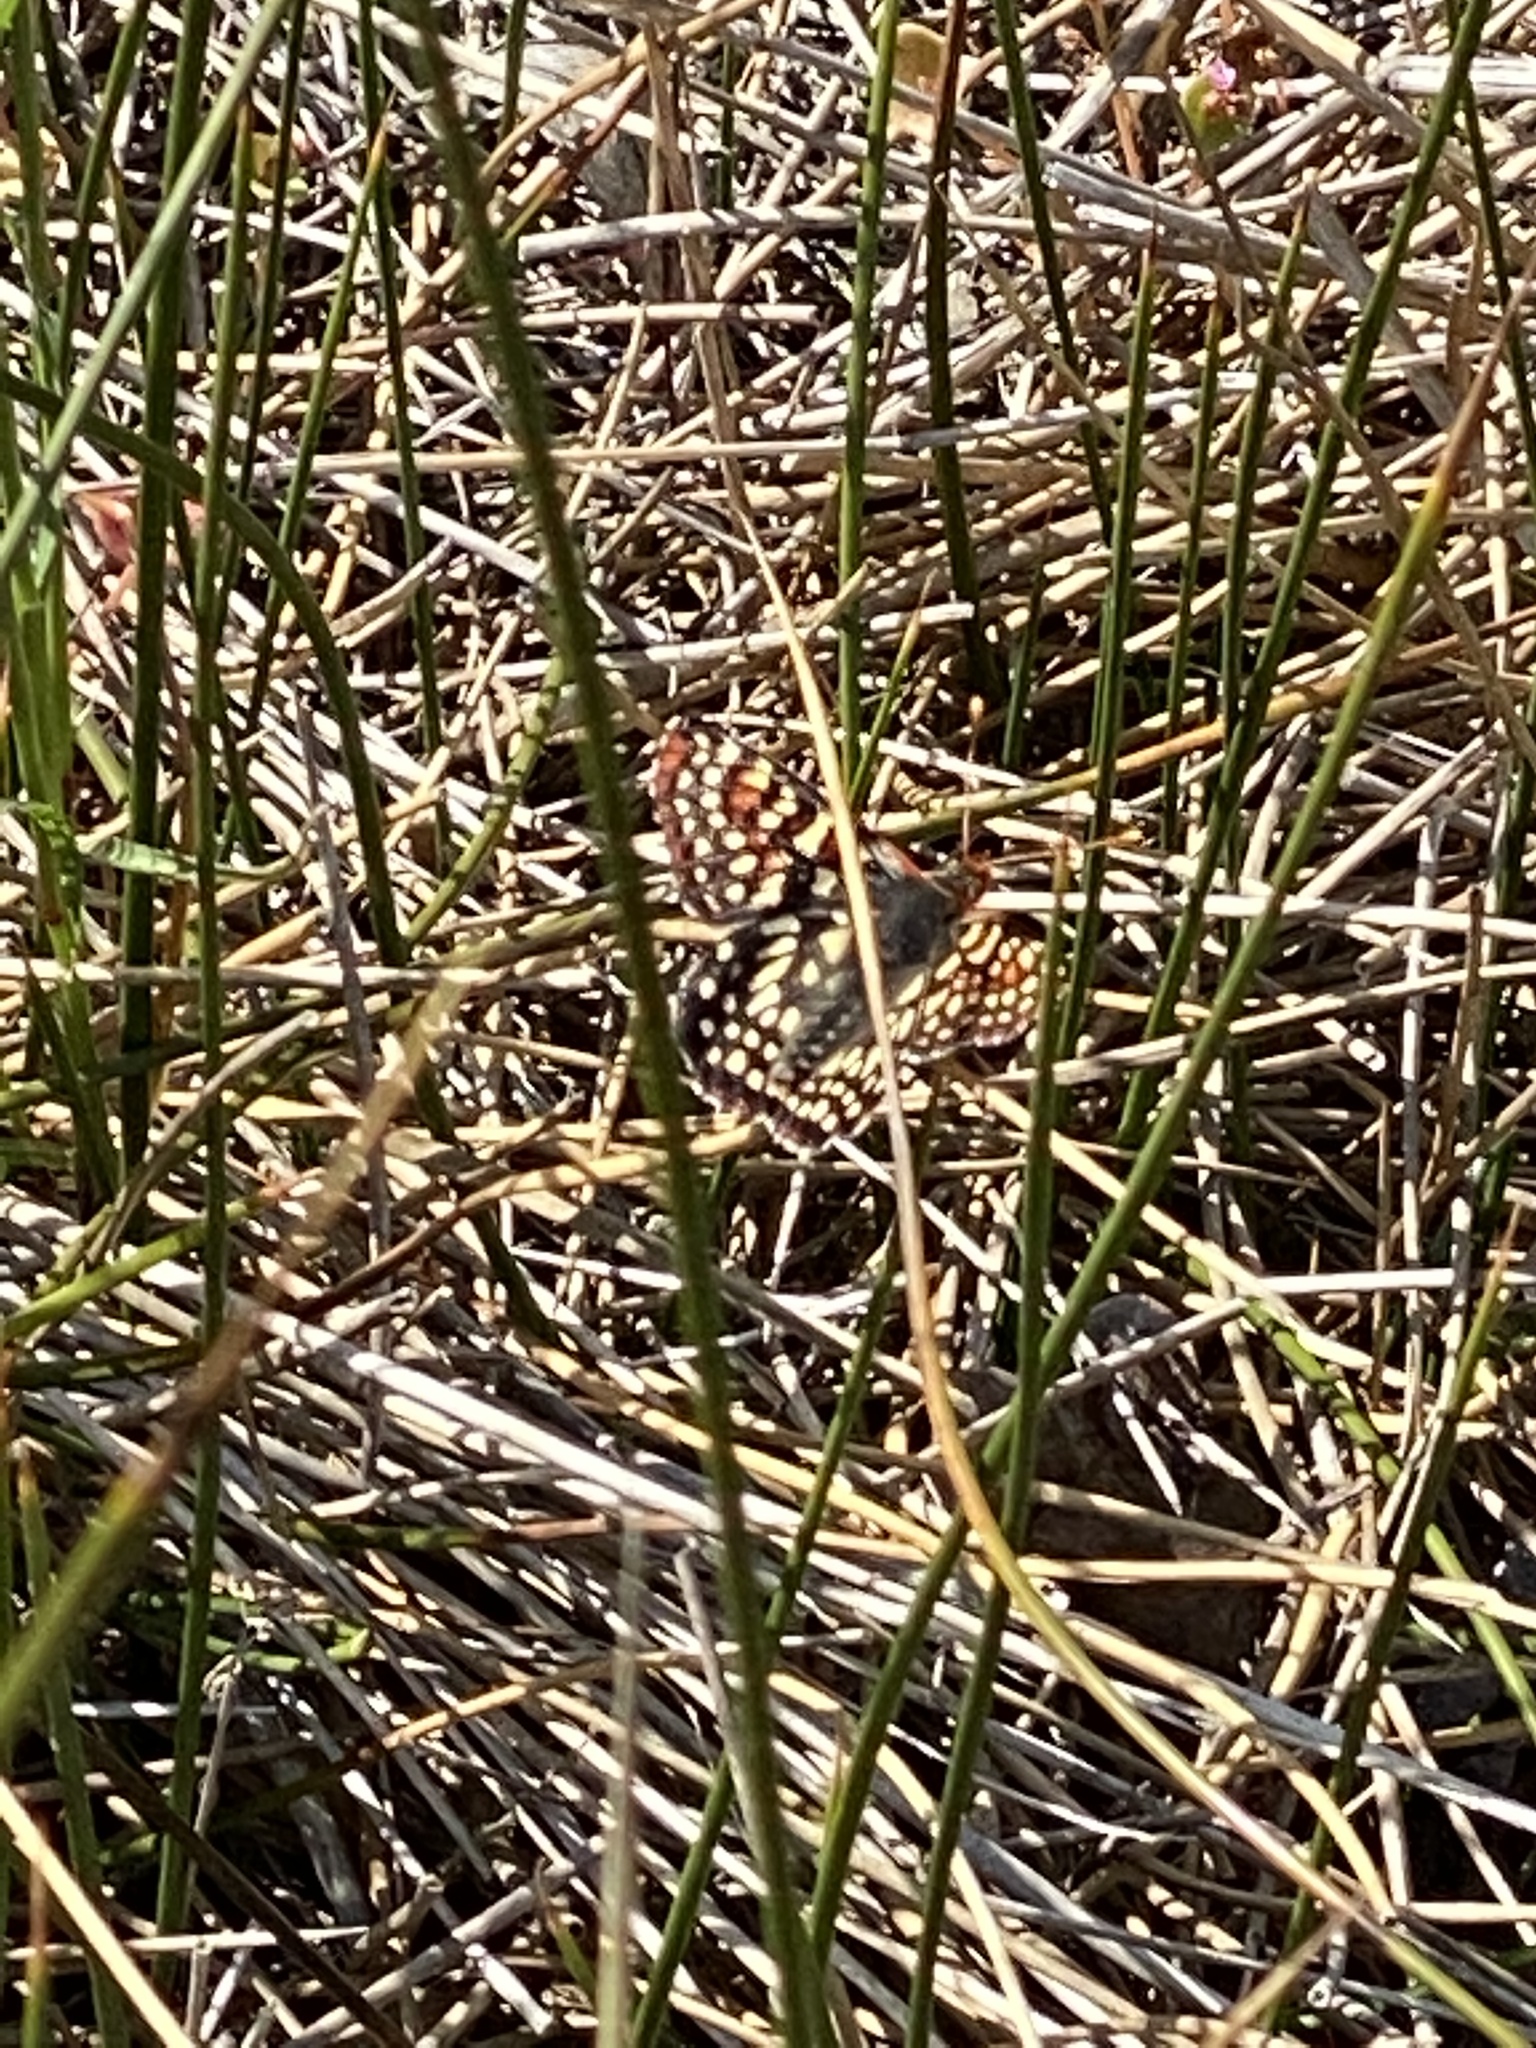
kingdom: Animalia
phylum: Arthropoda
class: Insecta
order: Lepidoptera
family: Nymphalidae
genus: Occidryas
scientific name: Occidryas chalcedona
